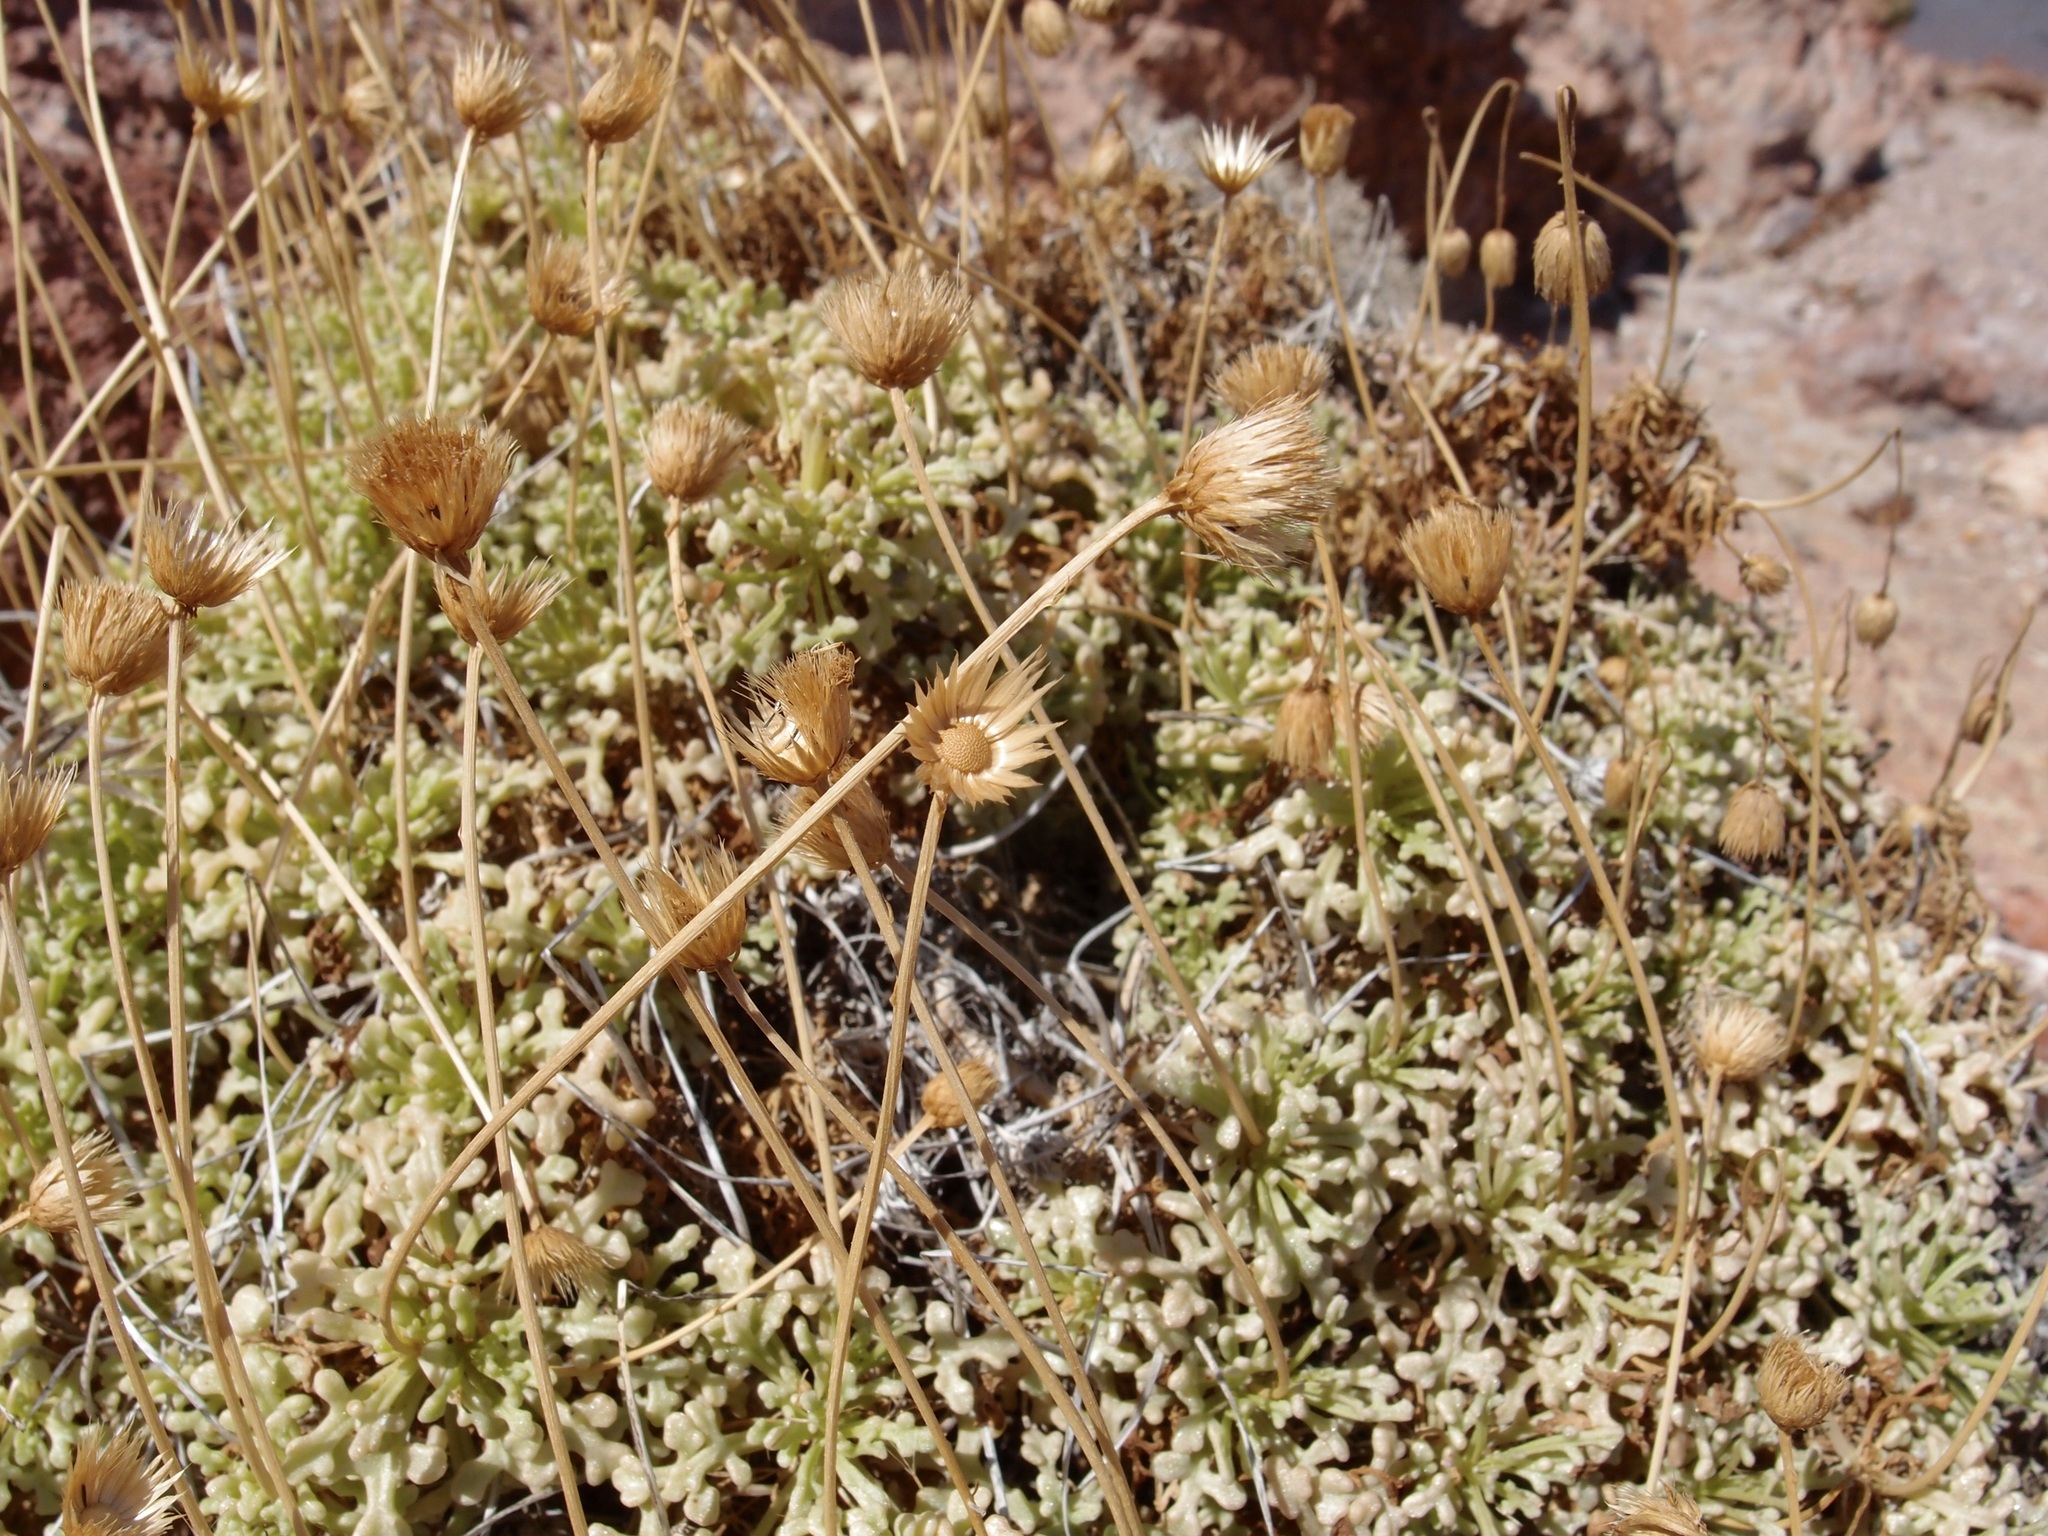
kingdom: Plantae
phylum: Tracheophyta
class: Magnoliopsida
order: Asterales
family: Asteraceae
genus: Hofmeisteria
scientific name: Hofmeisteria crassifolia
